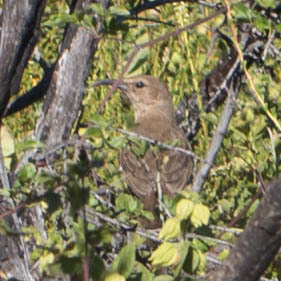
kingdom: Animalia
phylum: Chordata
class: Aves
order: Passeriformes
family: Mimidae
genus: Toxostoma
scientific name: Toxostoma redivivum
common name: California thrasher
